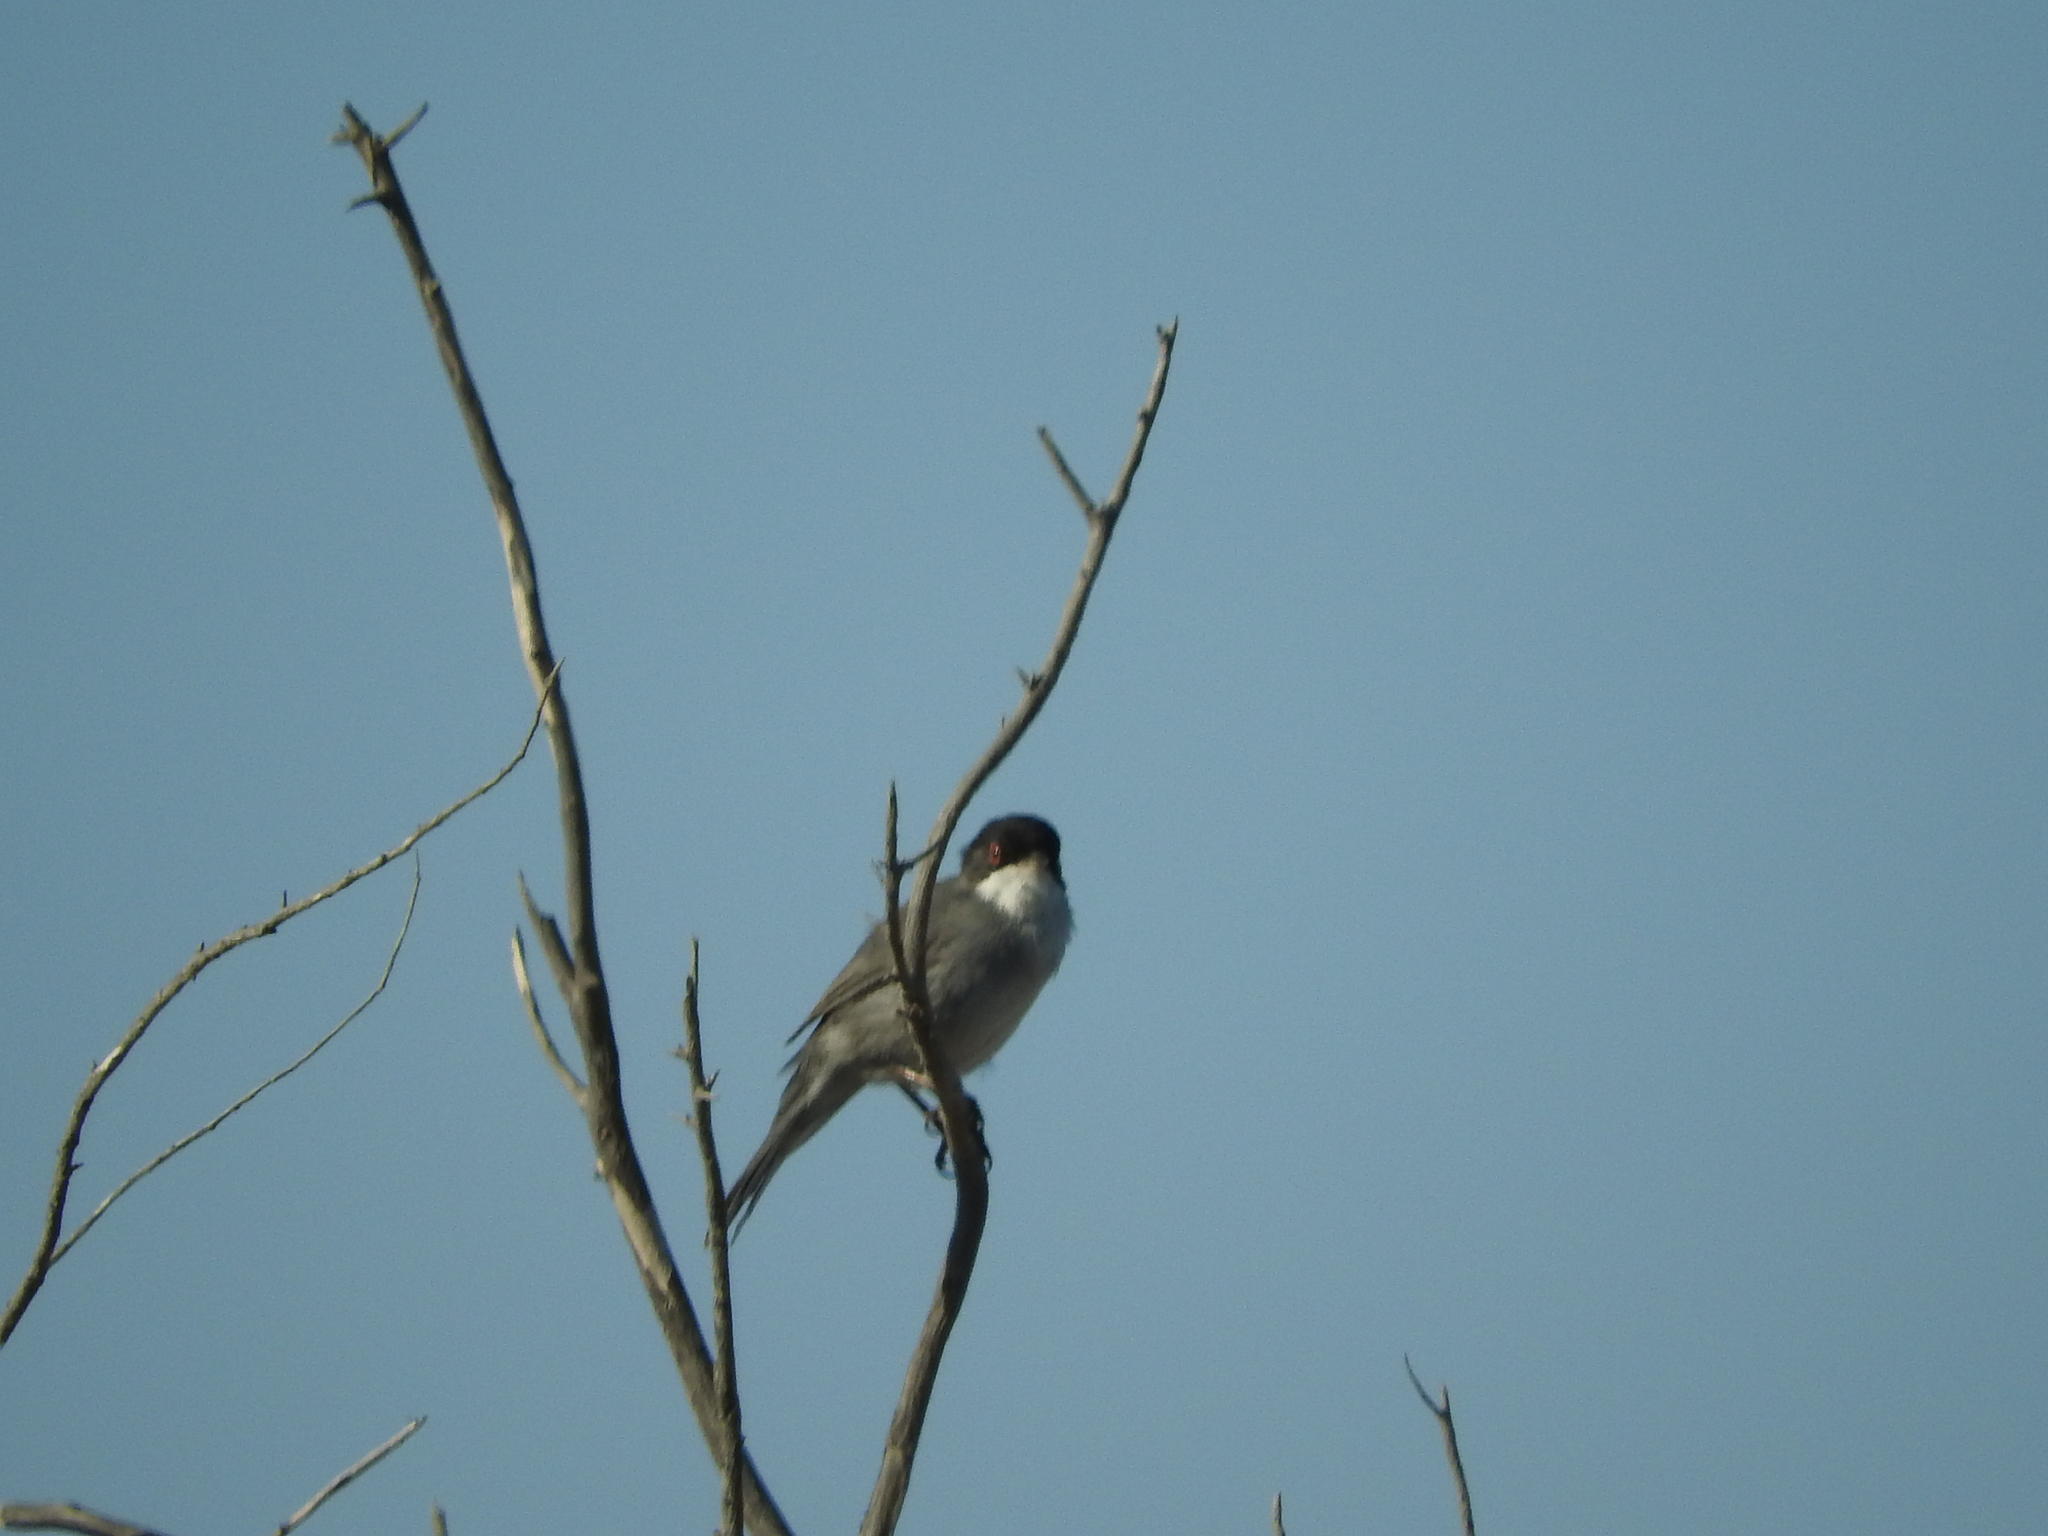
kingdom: Animalia
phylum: Chordata
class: Aves
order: Passeriformes
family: Sylviidae
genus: Curruca
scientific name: Curruca melanocephala
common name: Sardinian warbler
